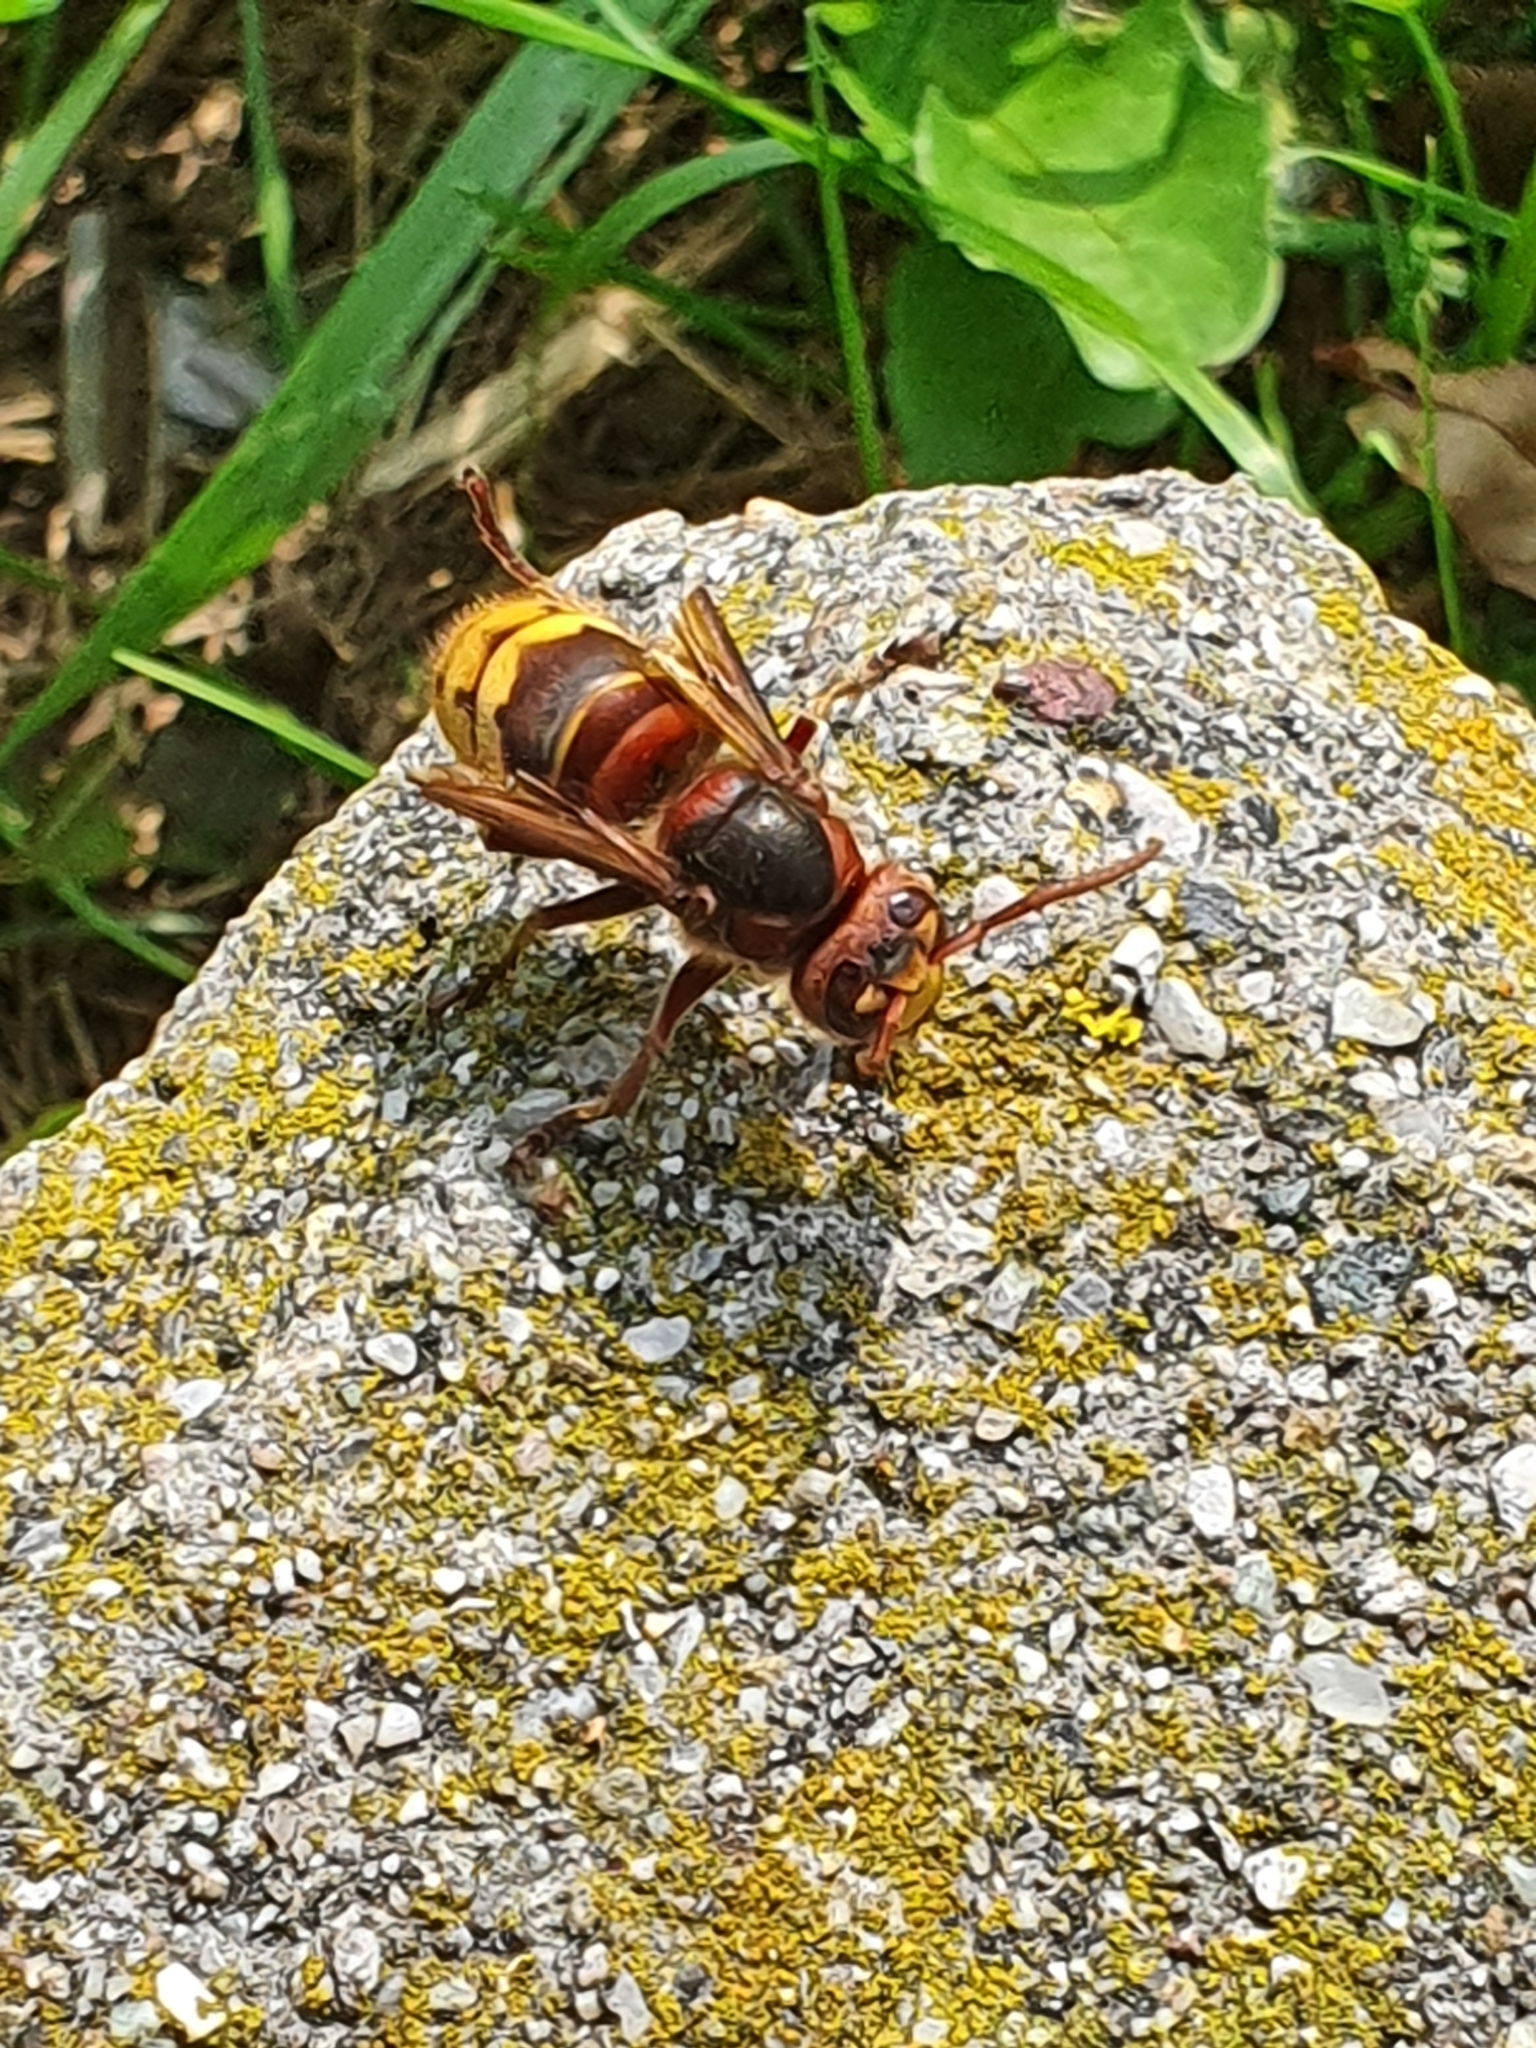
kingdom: Animalia
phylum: Arthropoda
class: Insecta
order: Hymenoptera
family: Vespidae
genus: Vespa
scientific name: Vespa crabro
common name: Hornet
